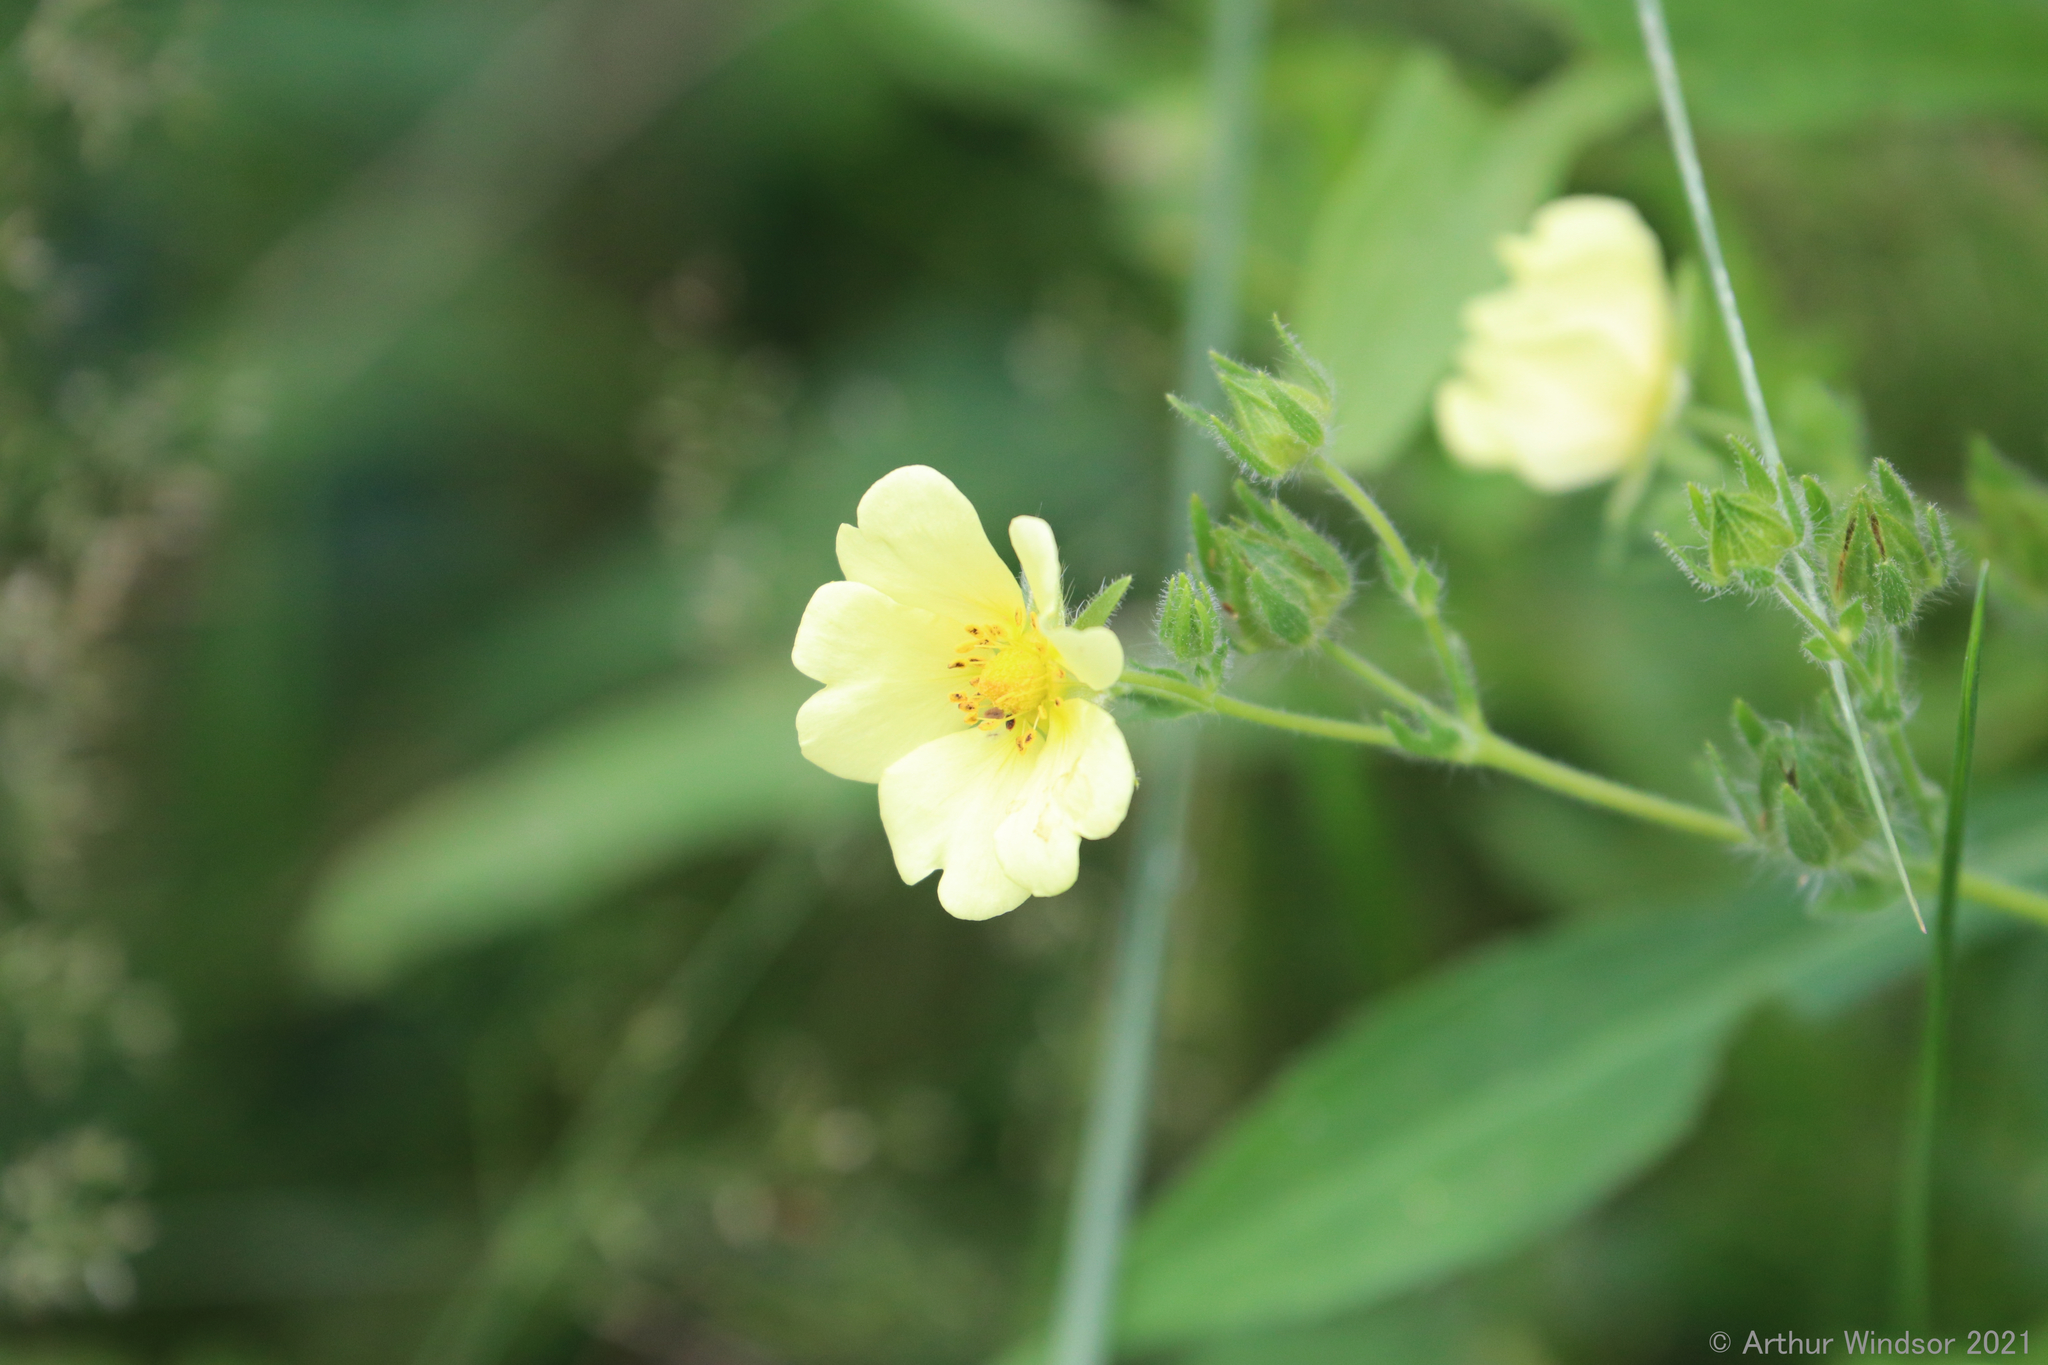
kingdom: Plantae
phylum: Tracheophyta
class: Magnoliopsida
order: Rosales
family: Rosaceae
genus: Potentilla
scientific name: Potentilla recta
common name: Sulphur cinquefoil
